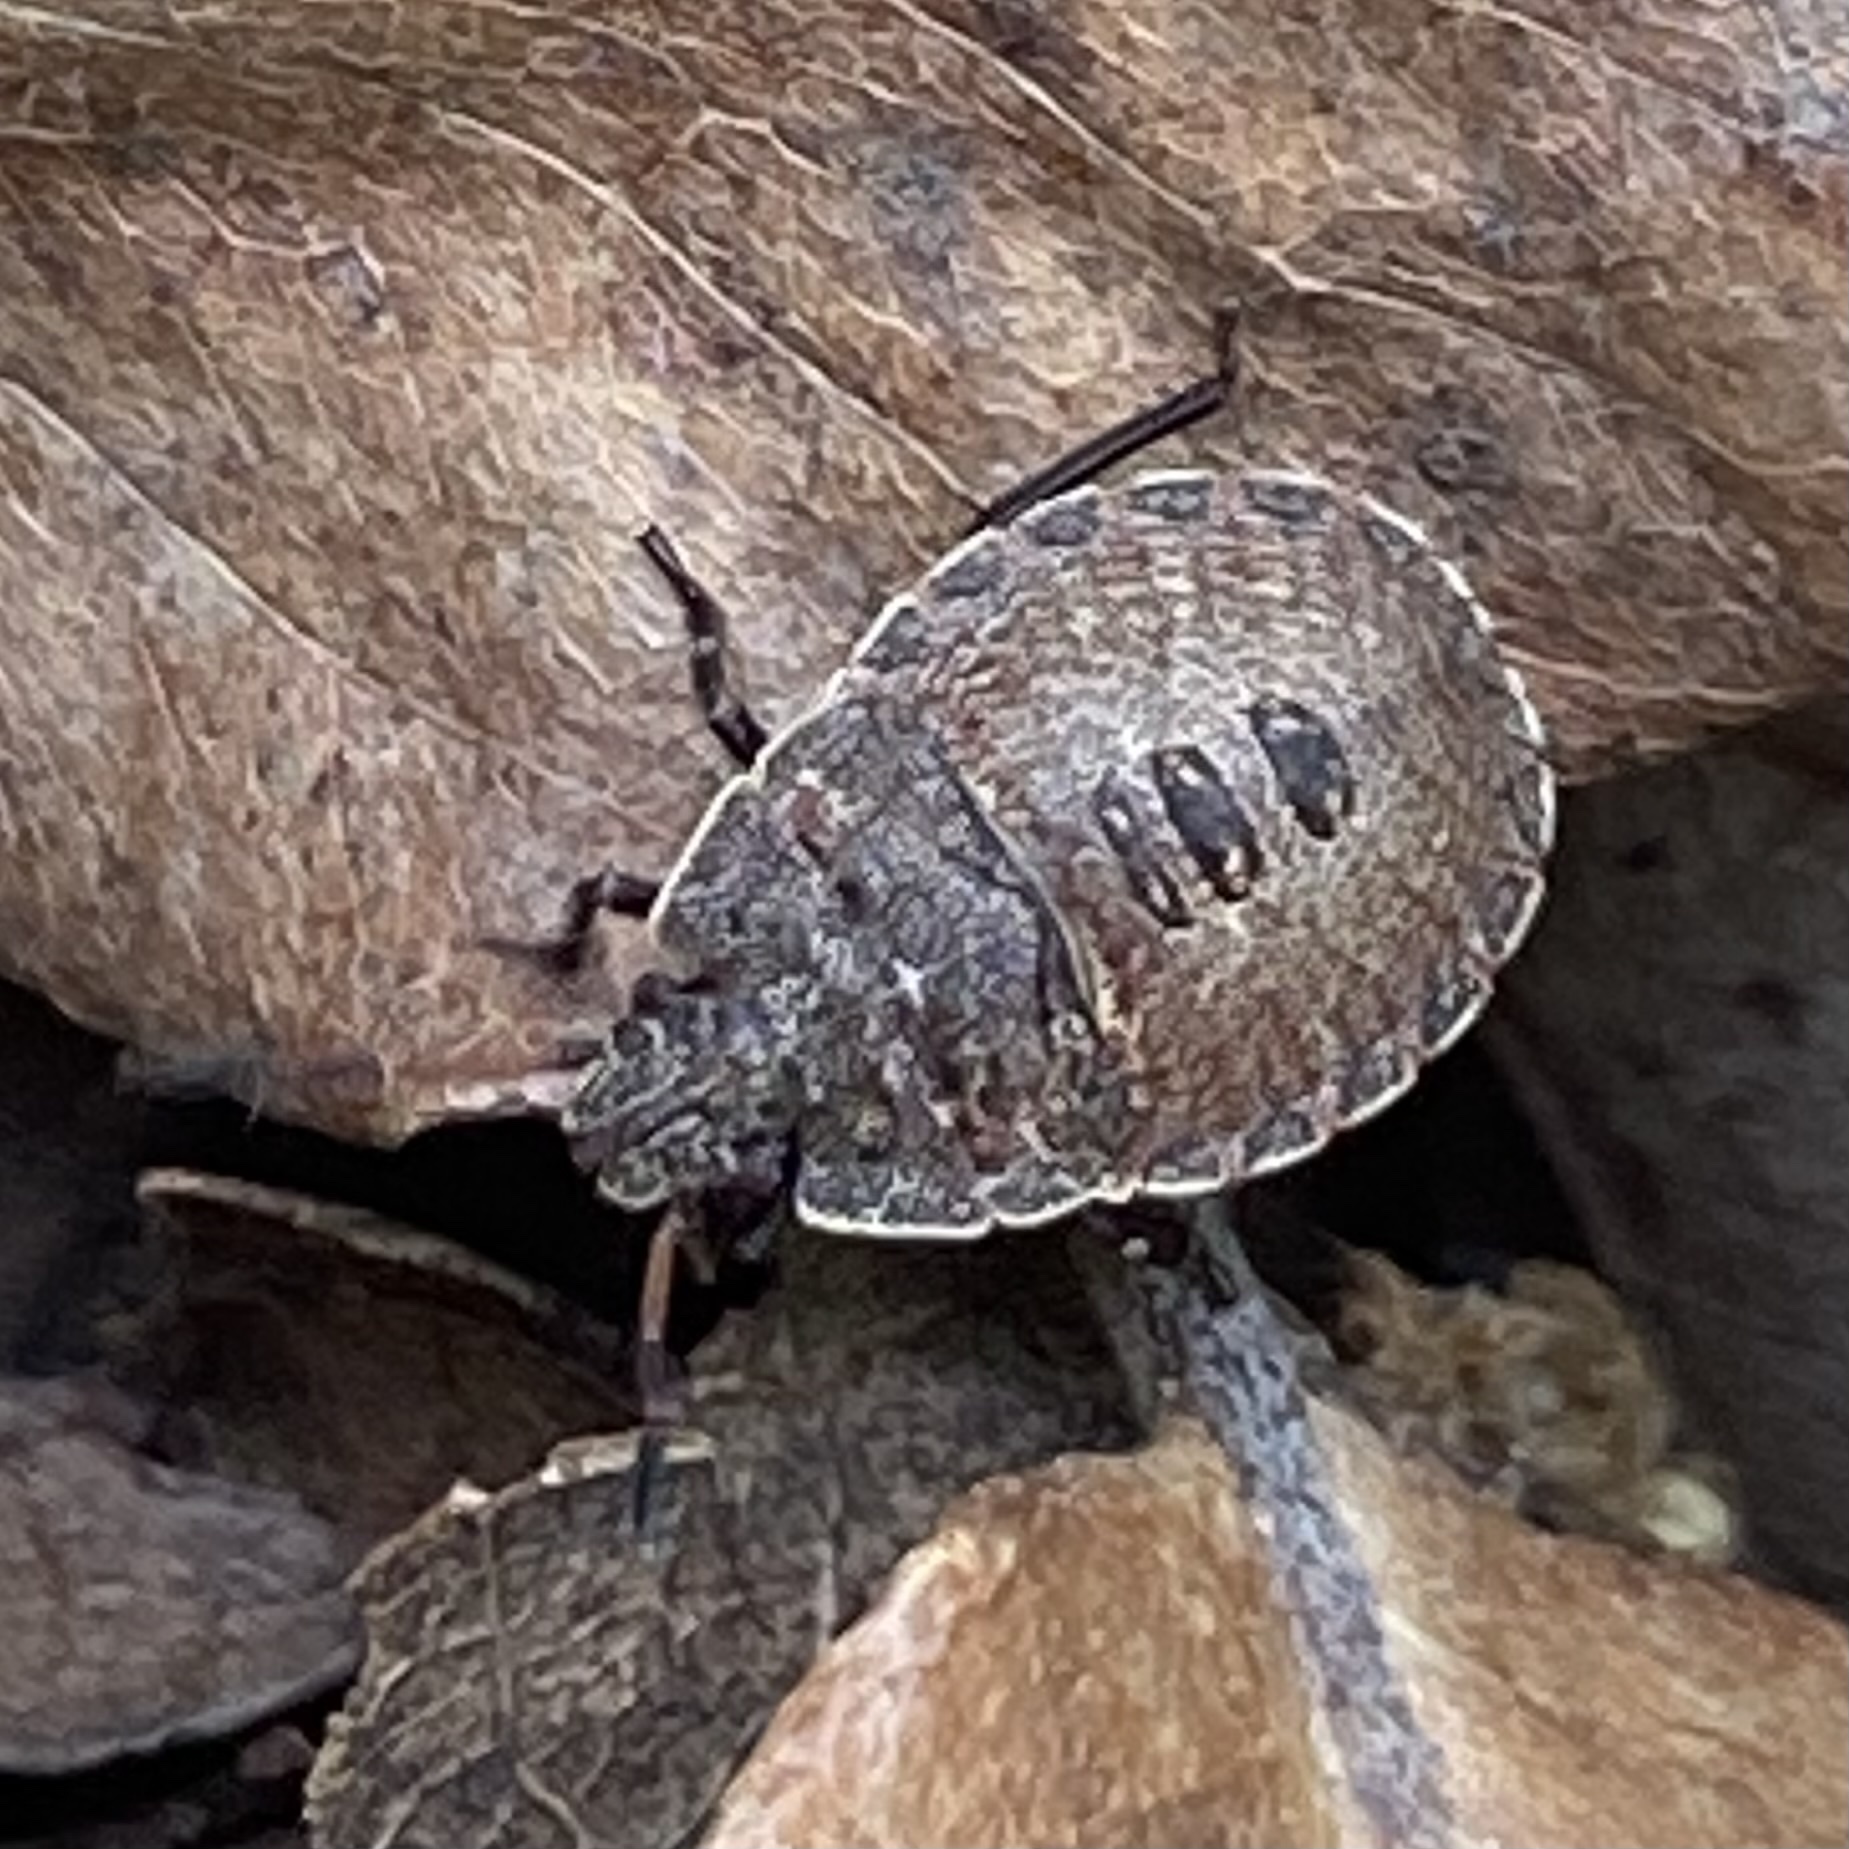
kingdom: Animalia
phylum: Arthropoda
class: Insecta
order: Hemiptera
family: Pentatomidae
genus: Menecles
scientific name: Menecles insertus
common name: Elf shoe stink bug
